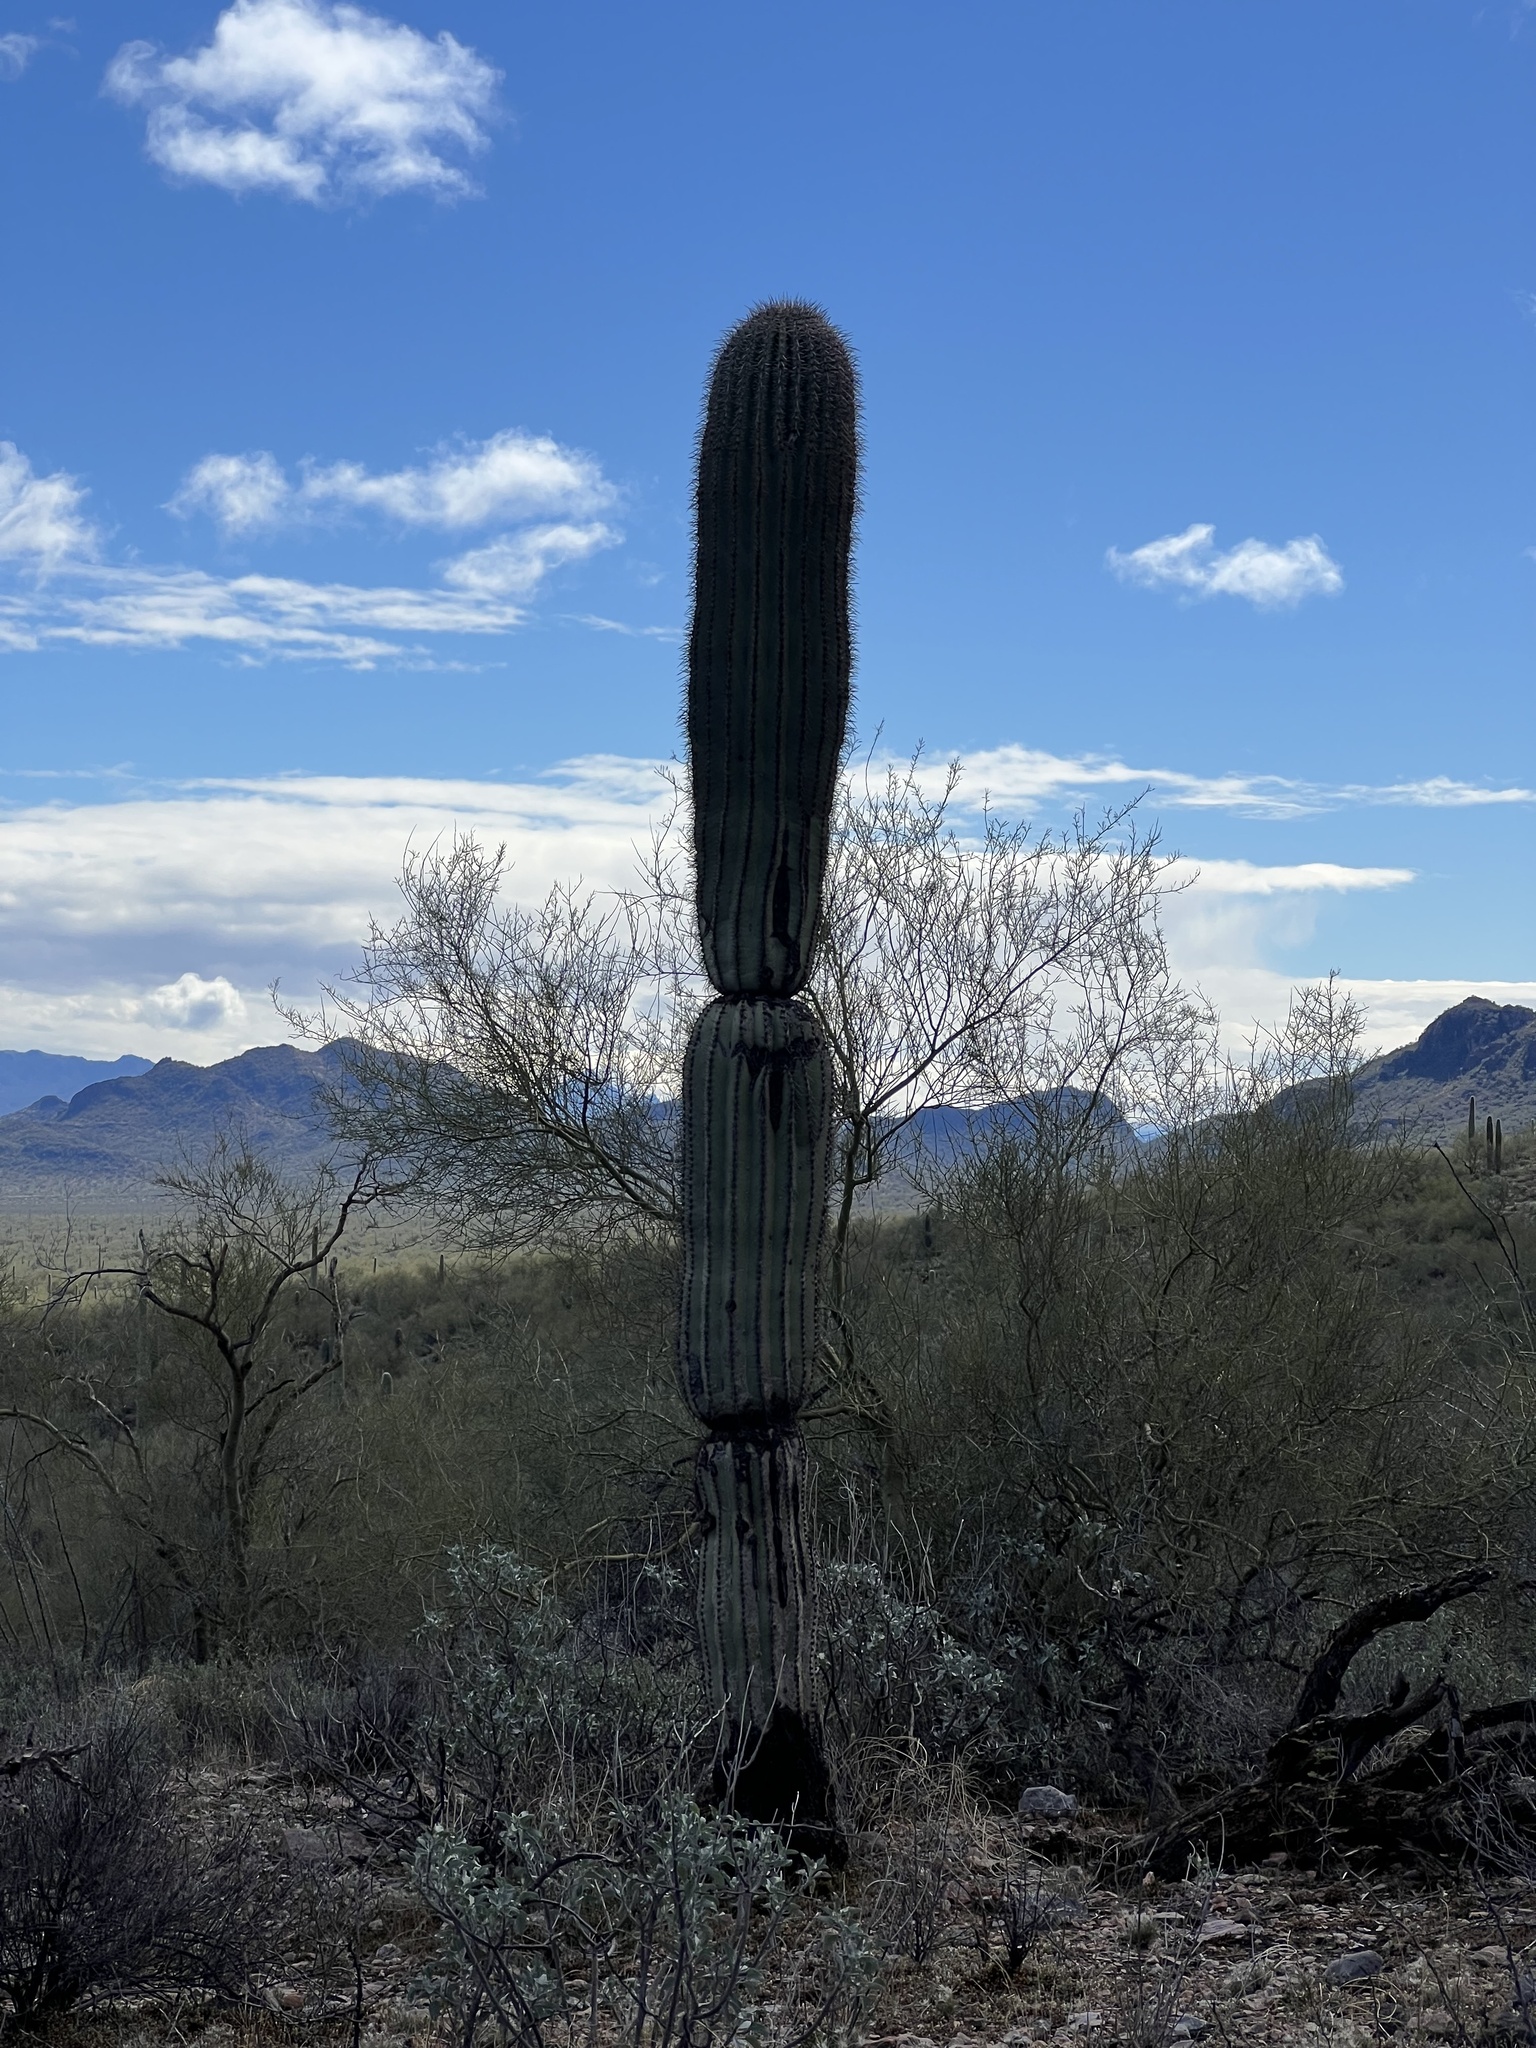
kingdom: Plantae
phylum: Tracheophyta
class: Magnoliopsida
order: Caryophyllales
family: Cactaceae
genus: Carnegiea
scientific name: Carnegiea gigantea
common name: Saguaro
